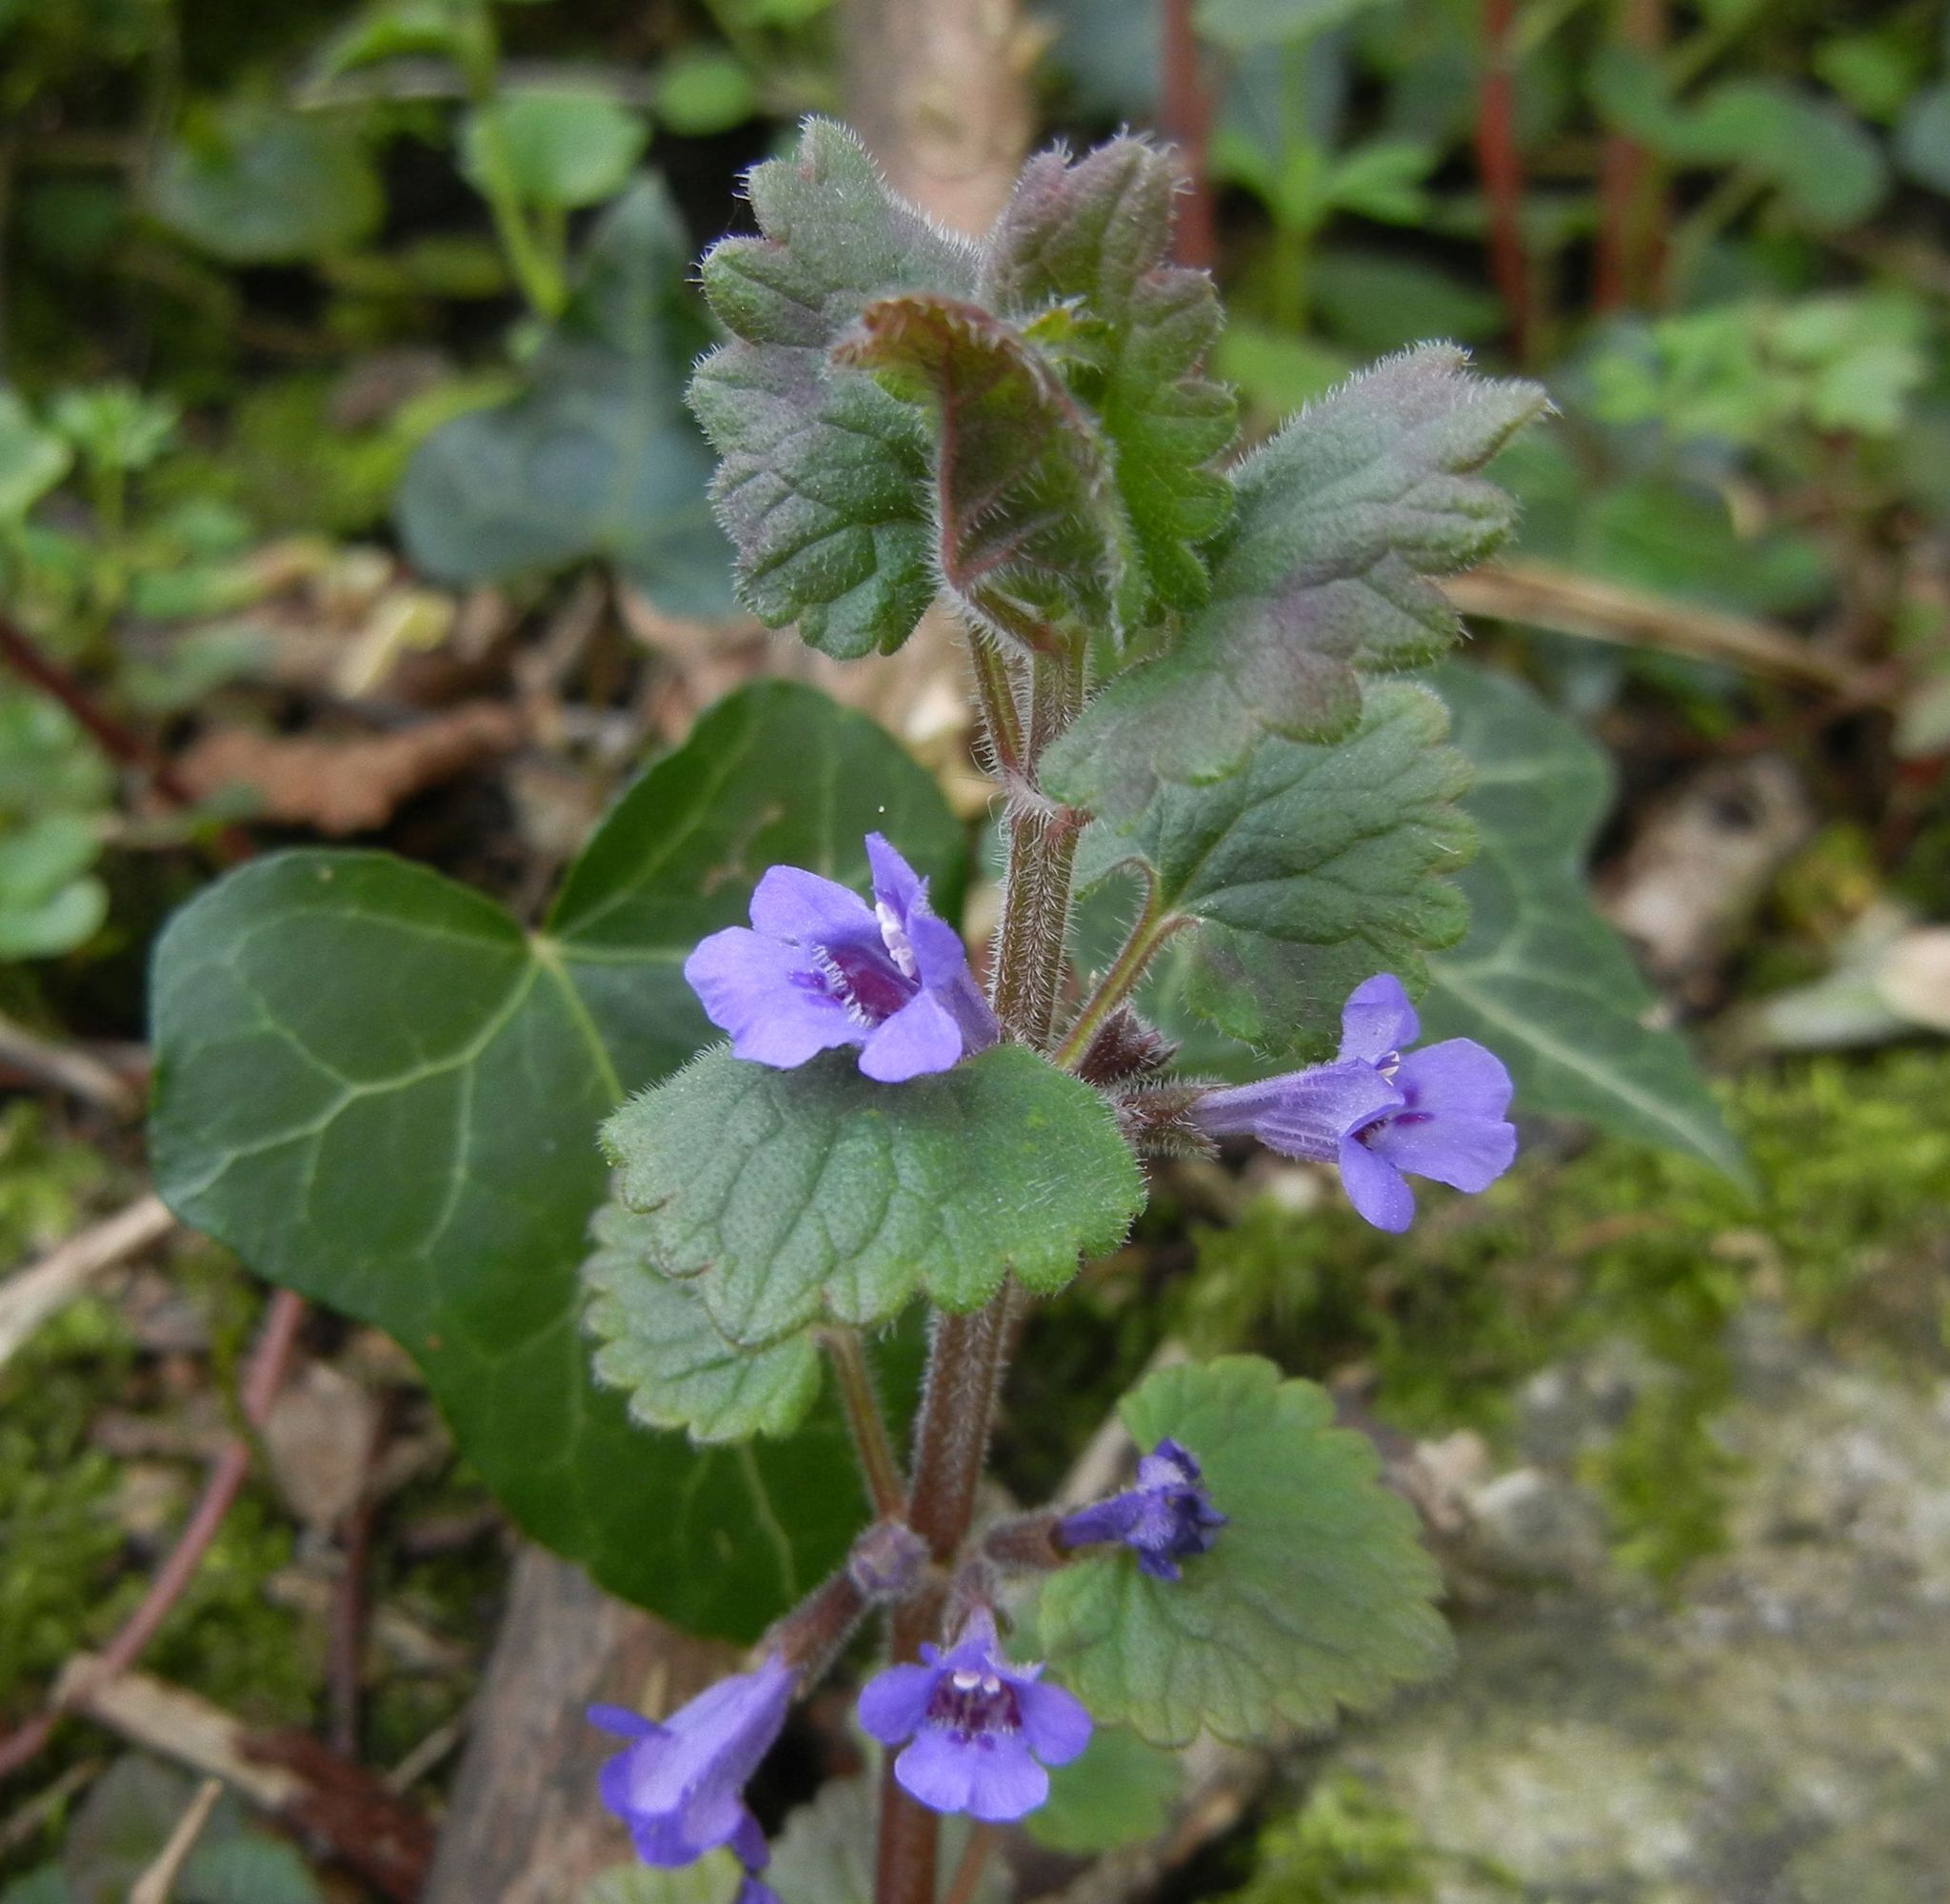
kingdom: Plantae
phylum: Tracheophyta
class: Magnoliopsida
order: Lamiales
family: Lamiaceae
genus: Glechoma
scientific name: Glechoma hederacea
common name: Ground ivy
